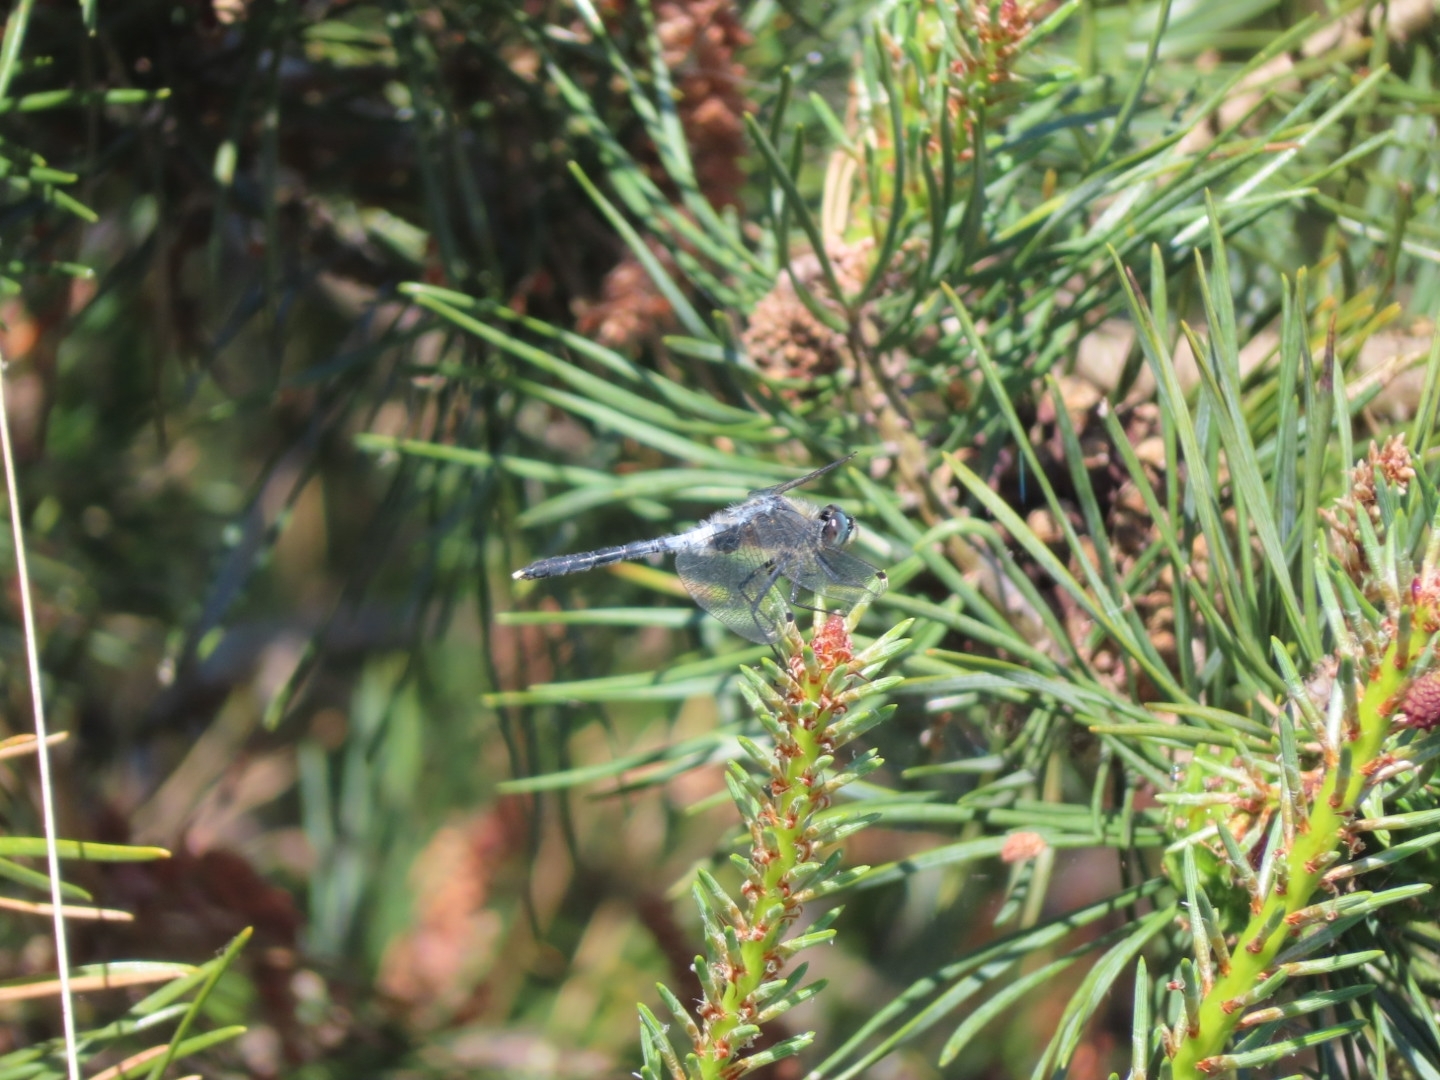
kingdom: Animalia
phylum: Arthropoda
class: Insecta
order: Odonata
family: Libellulidae
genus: Leucorrhinia
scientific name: Leucorrhinia albifrons
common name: Dark whiteface
